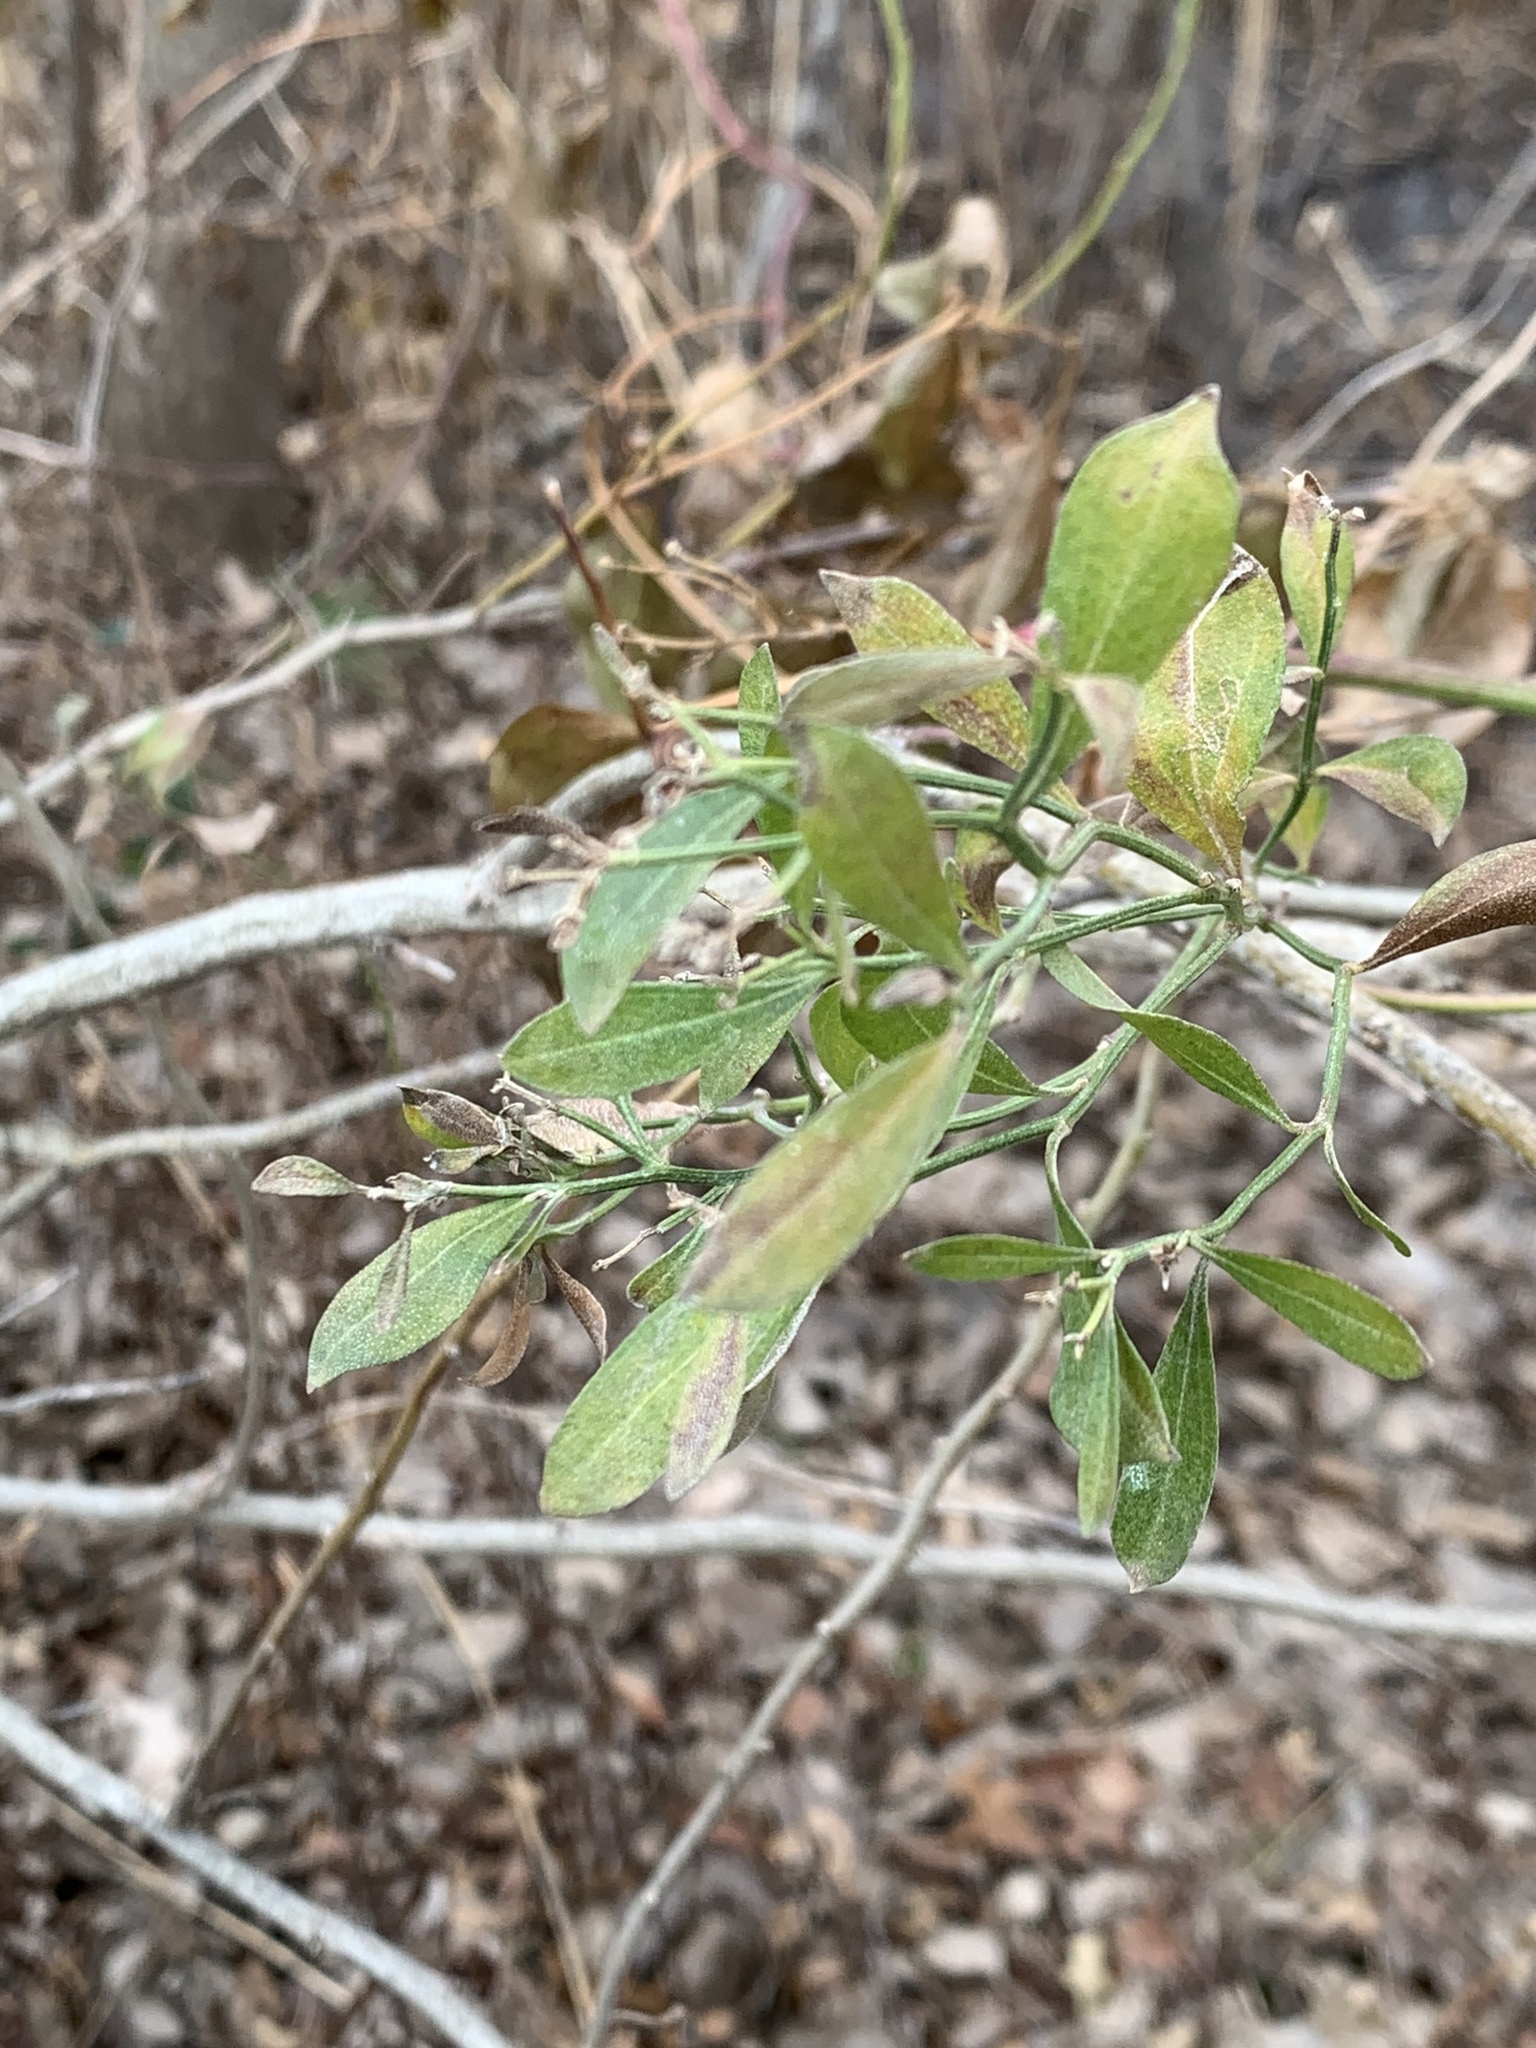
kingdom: Plantae
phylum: Tracheophyta
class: Magnoliopsida
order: Asterales
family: Asteraceae
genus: Baccharis
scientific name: Baccharis halimifolia
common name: Eastern baccharis
